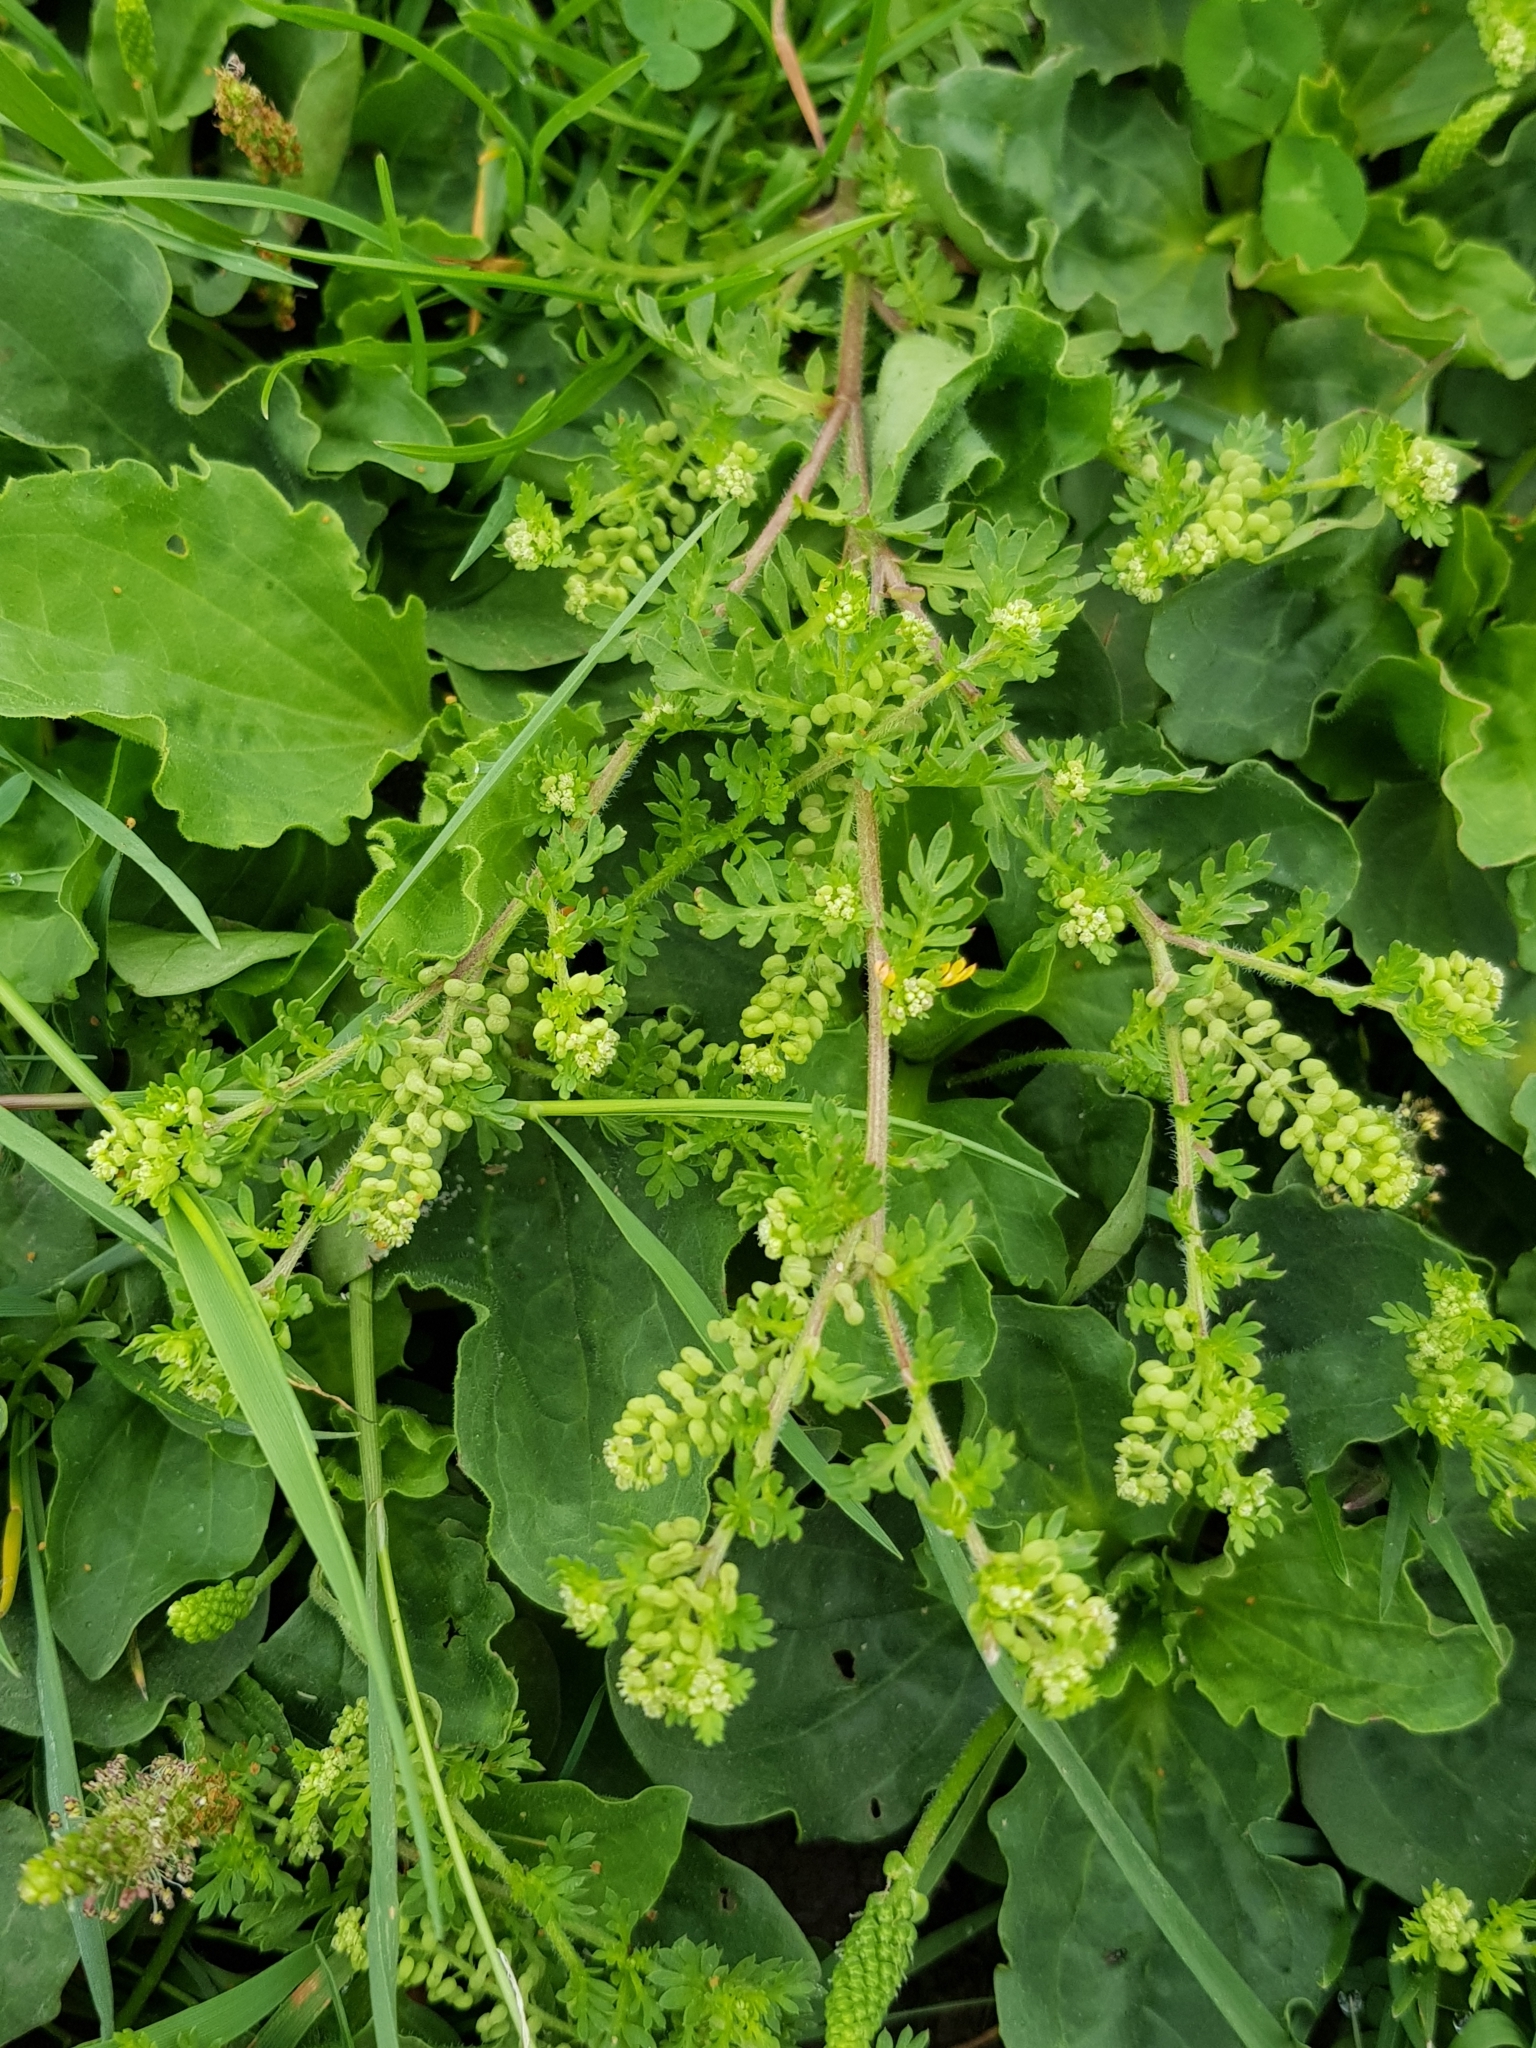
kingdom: Plantae
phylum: Tracheophyta
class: Magnoliopsida
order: Brassicales
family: Brassicaceae
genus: Lepidium
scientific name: Lepidium didymum
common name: Lesser swinecress
